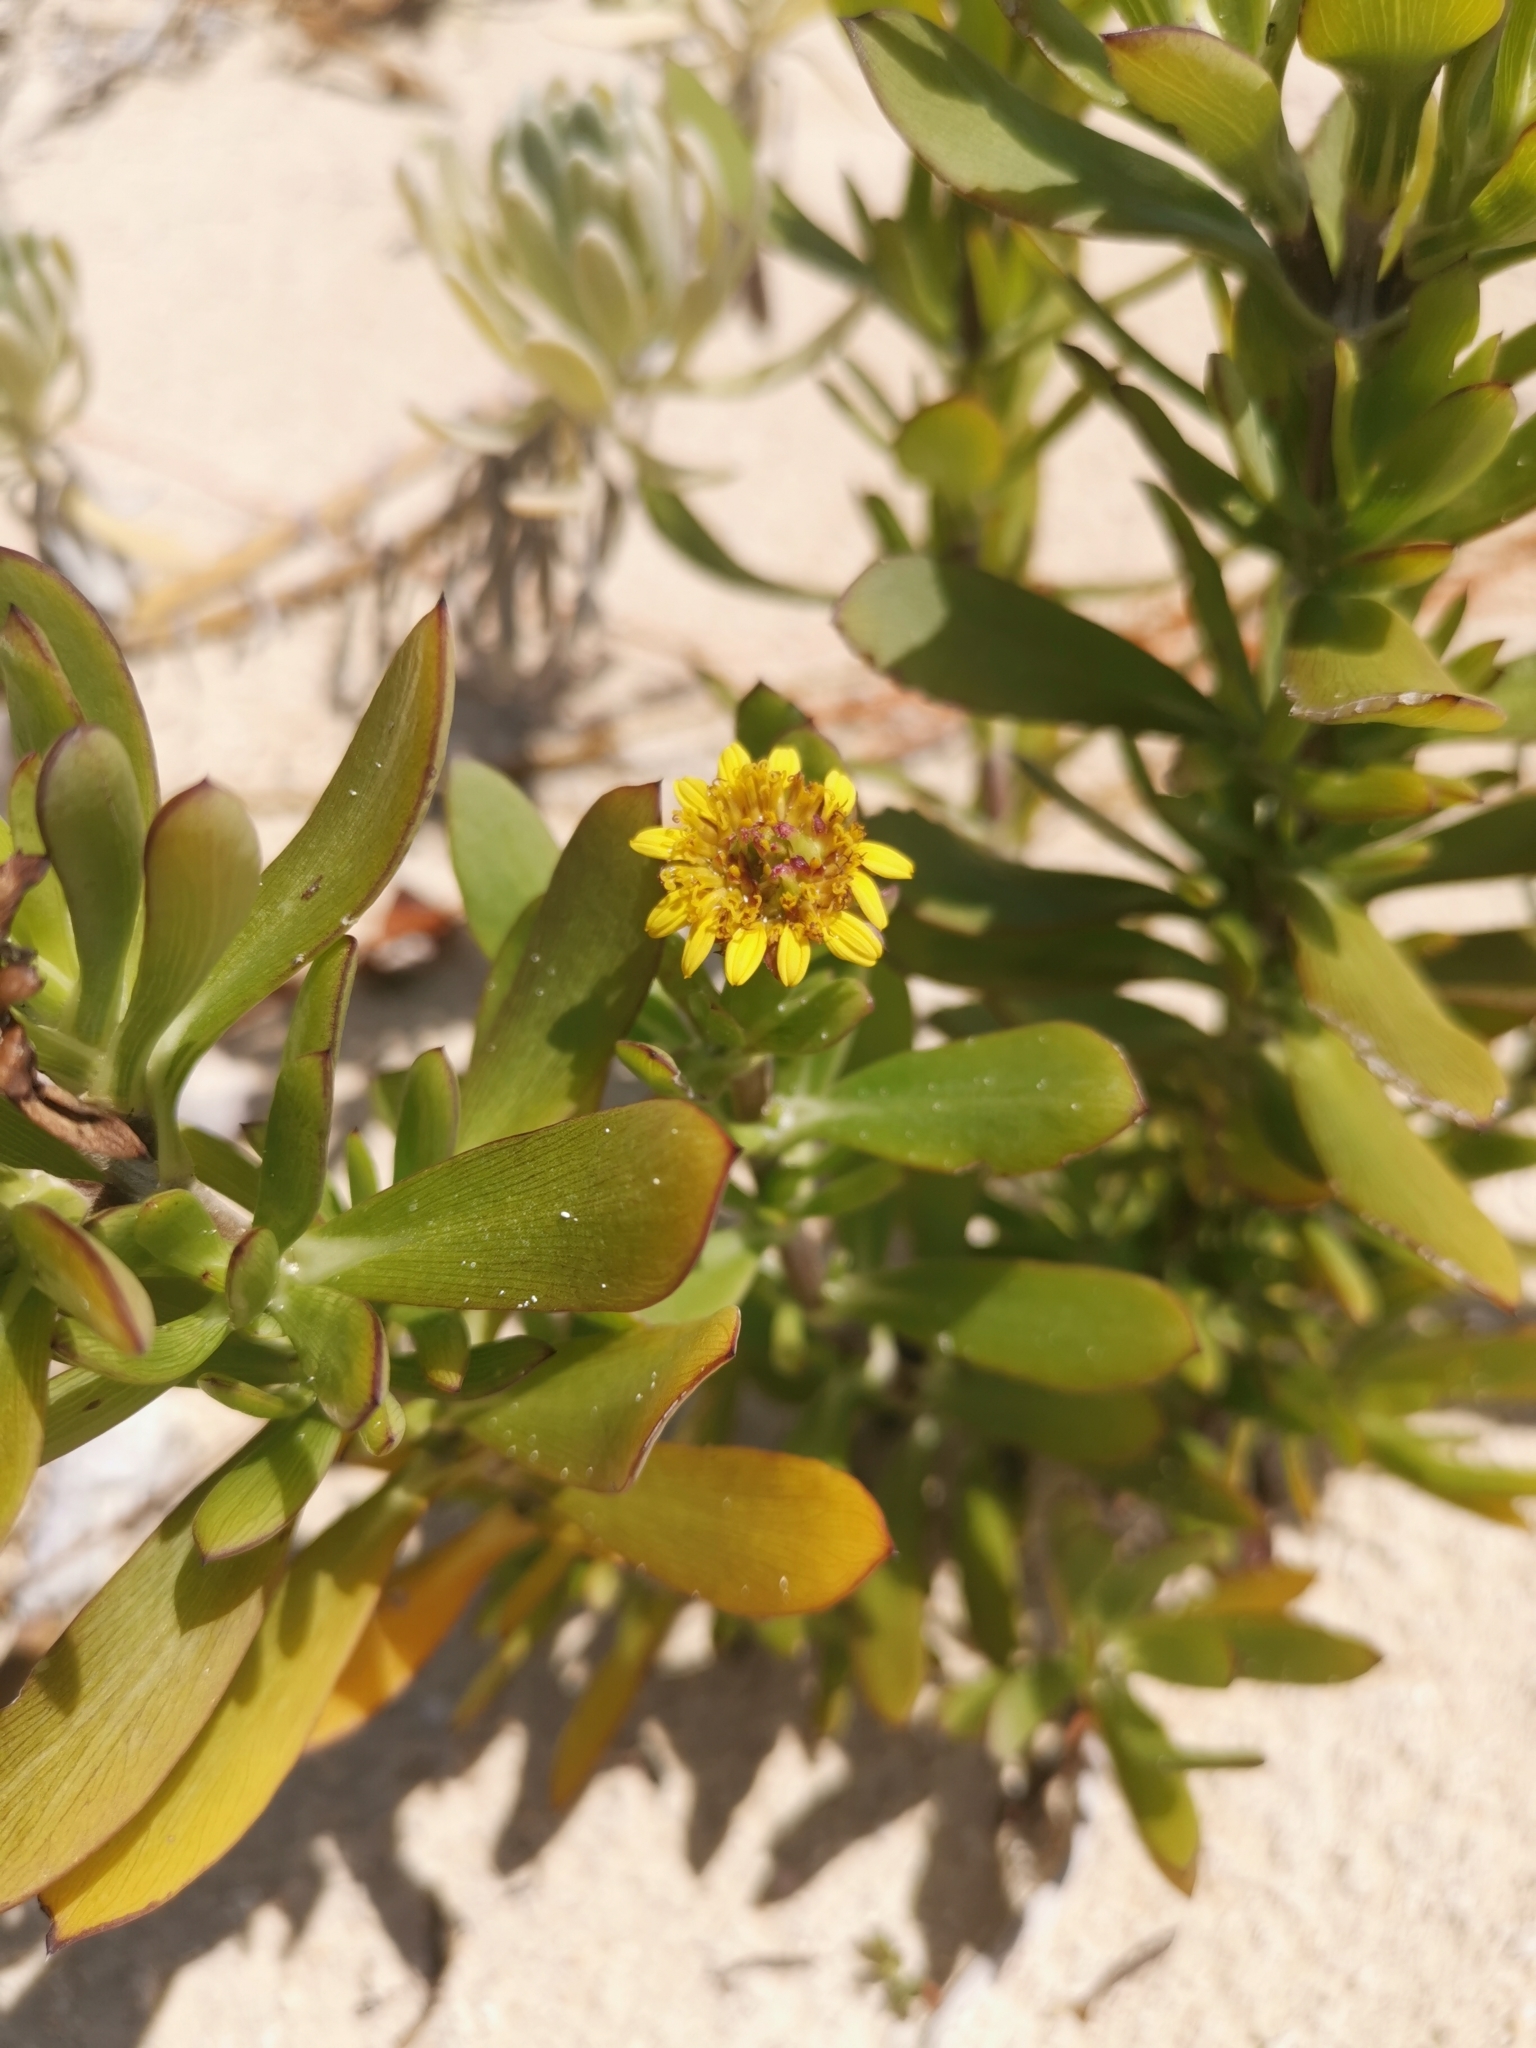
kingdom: Plantae
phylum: Tracheophyta
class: Magnoliopsida
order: Asterales
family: Asteraceae
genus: Borrichia
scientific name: Borrichia arborescens
